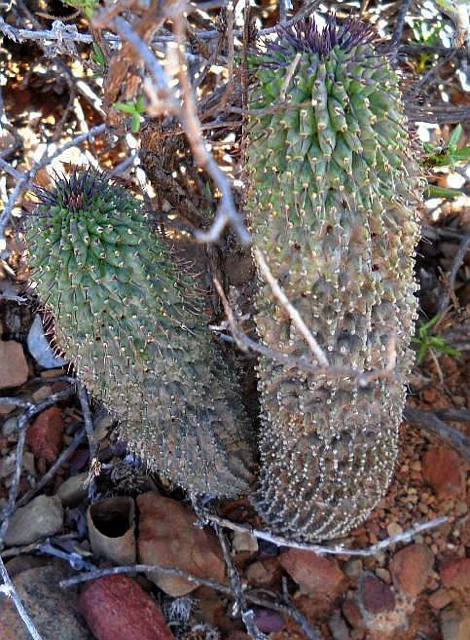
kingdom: Plantae
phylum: Tracheophyta
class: Magnoliopsida
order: Gentianales
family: Apocynaceae
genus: Ceropegia
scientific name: Ceropegia pilifera
